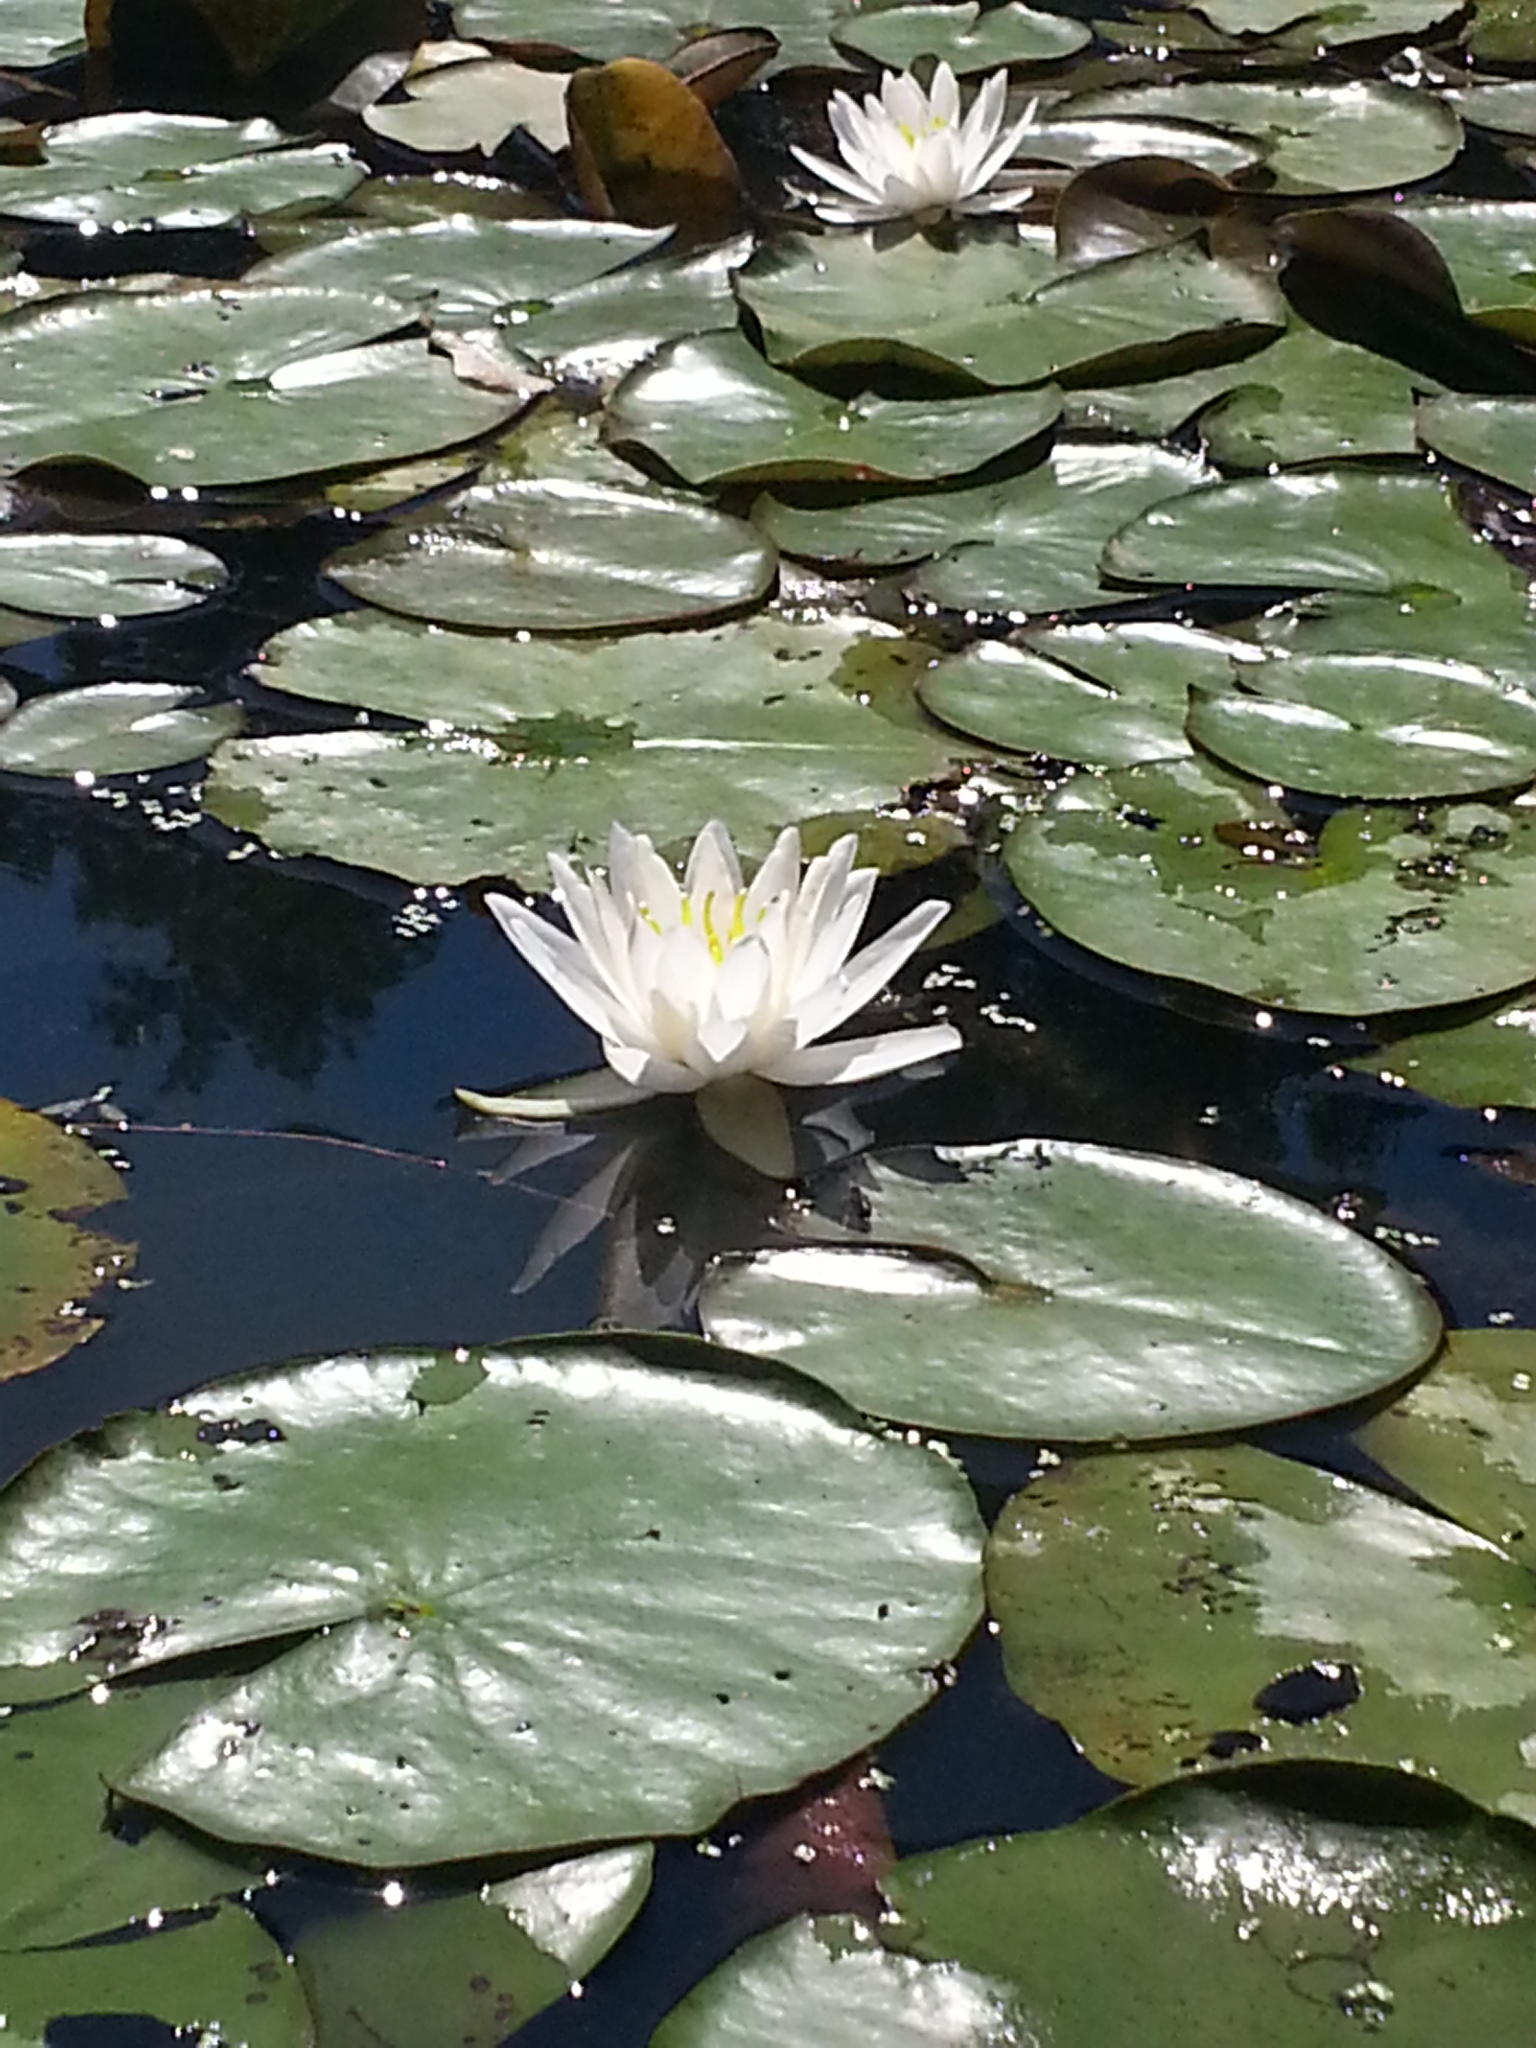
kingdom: Plantae
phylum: Tracheophyta
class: Magnoliopsida
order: Nymphaeales
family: Nymphaeaceae
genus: Nymphaea
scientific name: Nymphaea odorata
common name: Fragrant water-lily
